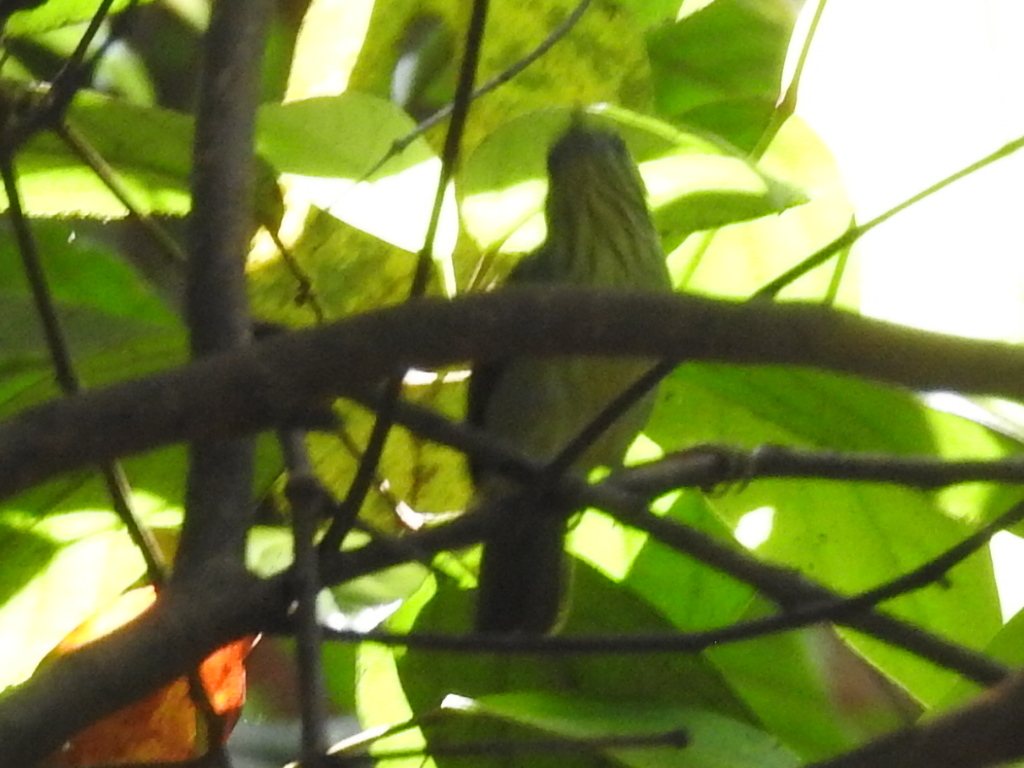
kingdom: Animalia
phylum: Chordata
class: Aves
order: Passeriformes
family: Timaliidae
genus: Macronus
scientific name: Macronus gularis
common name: Striped tit-babbler
